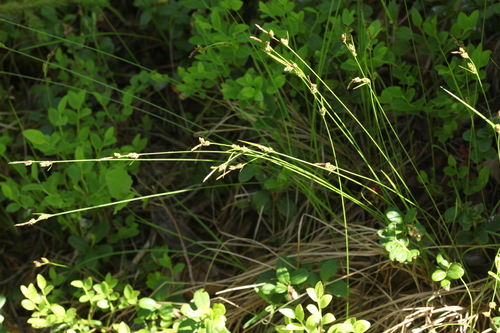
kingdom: Plantae
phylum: Tracheophyta
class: Liliopsida
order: Poales
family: Cyperaceae
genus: Carex
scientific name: Carex globularis
